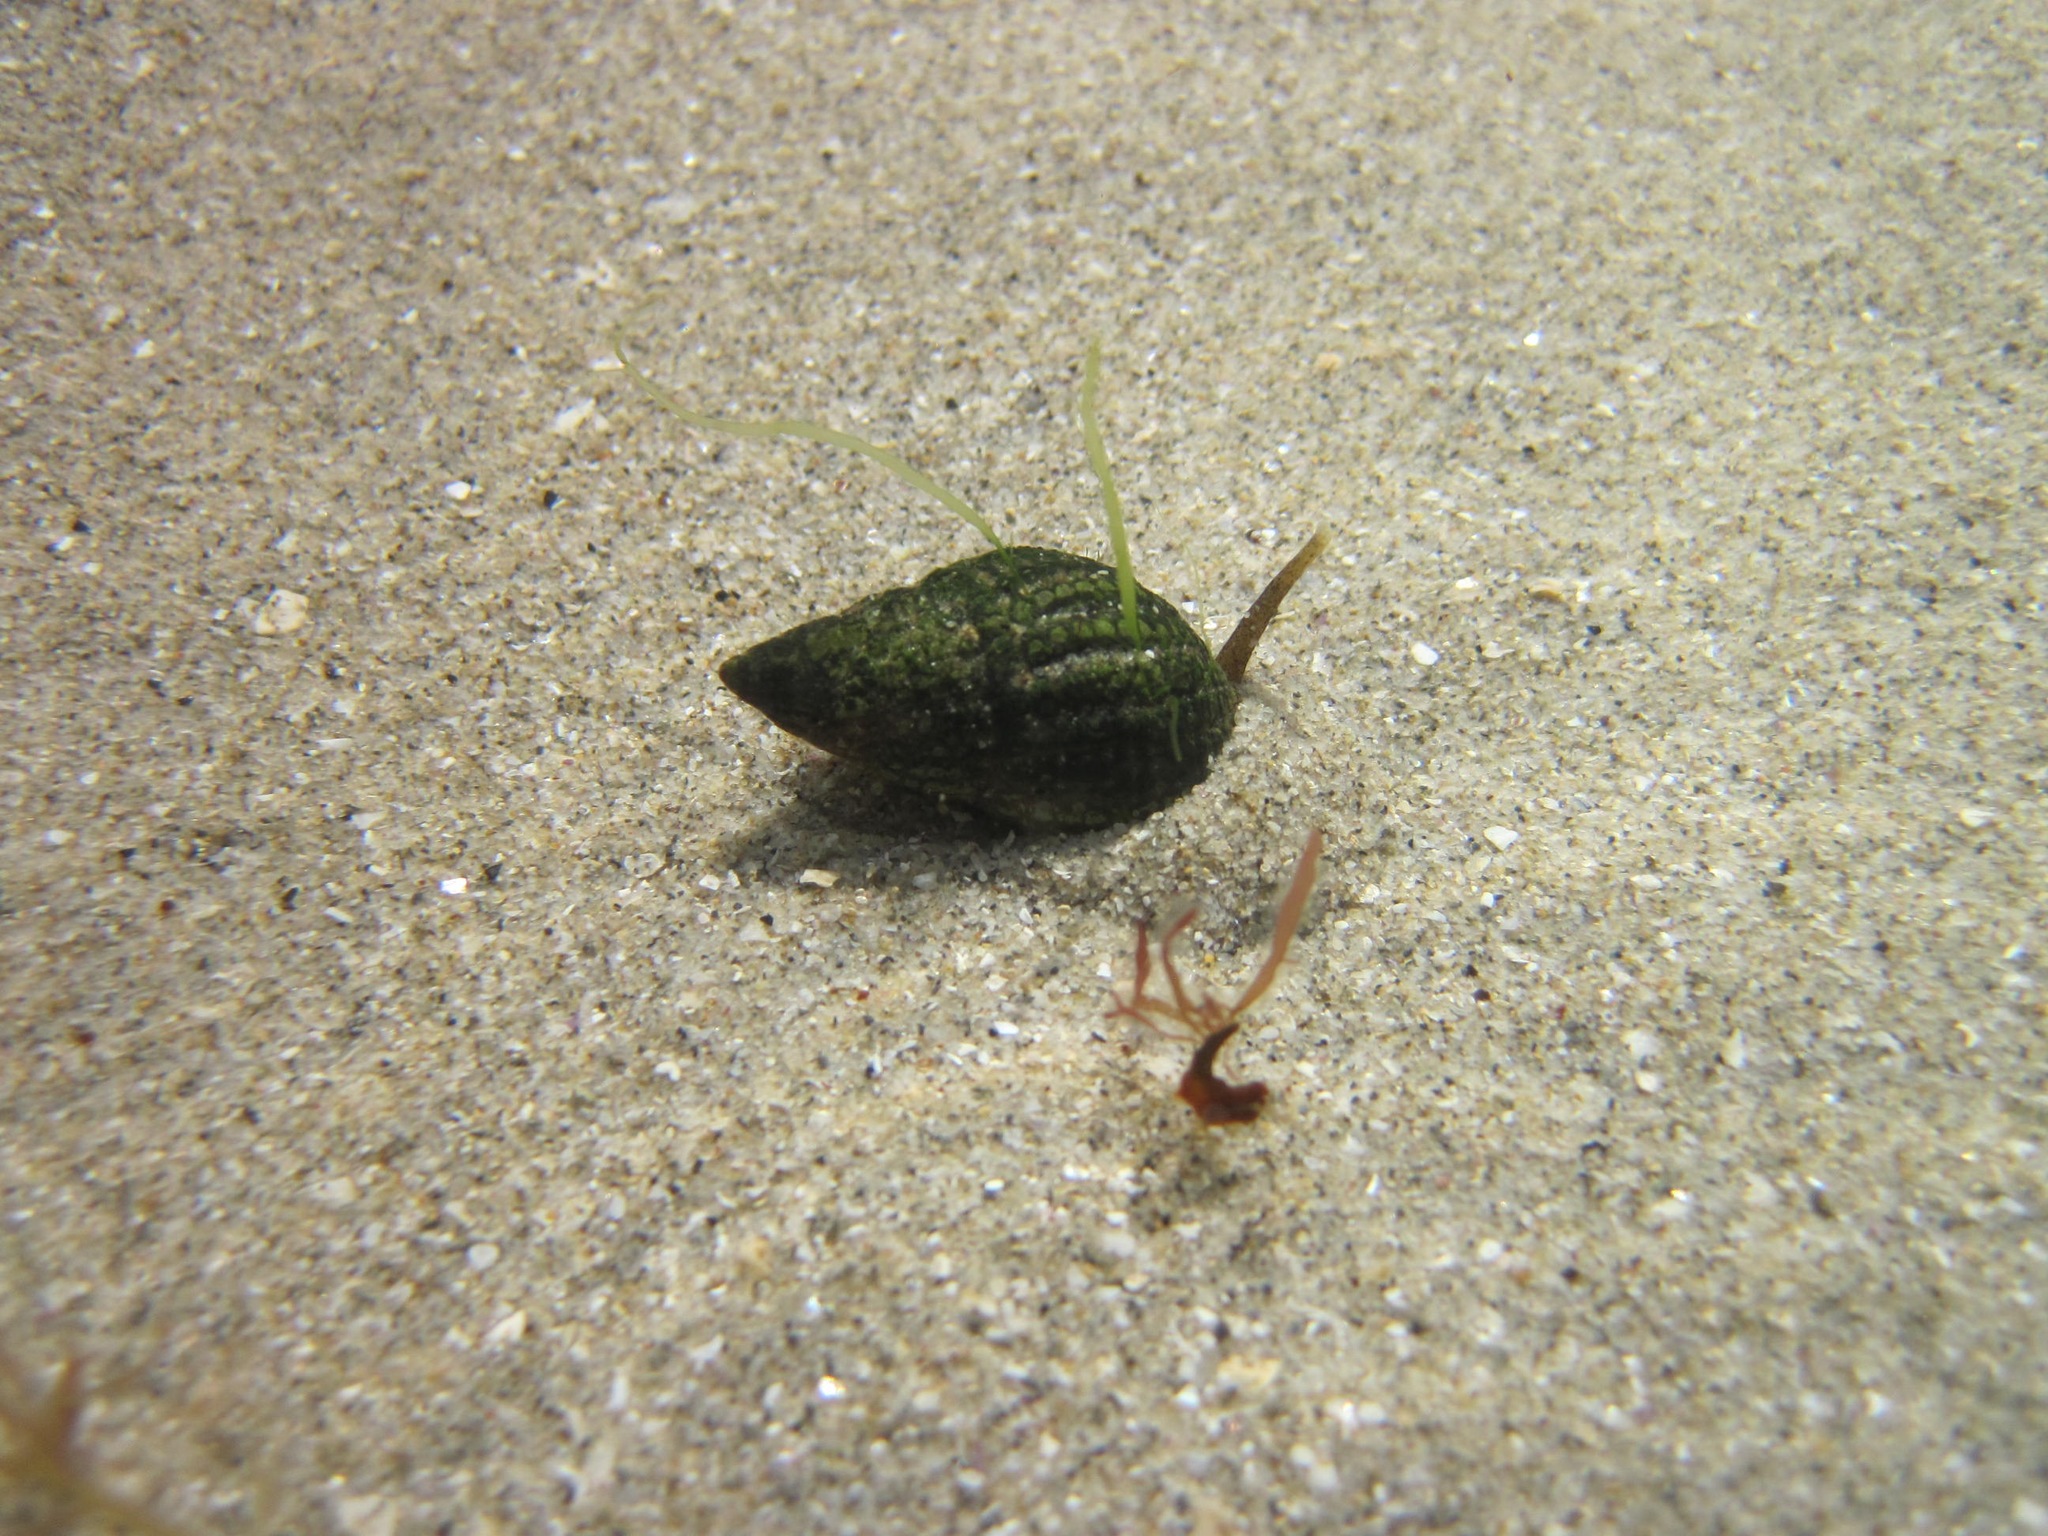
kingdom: Animalia
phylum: Mollusca
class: Gastropoda
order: Neogastropoda
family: Nassariidae
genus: Tritia
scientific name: Tritia reticulata
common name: Netted dog whelk
